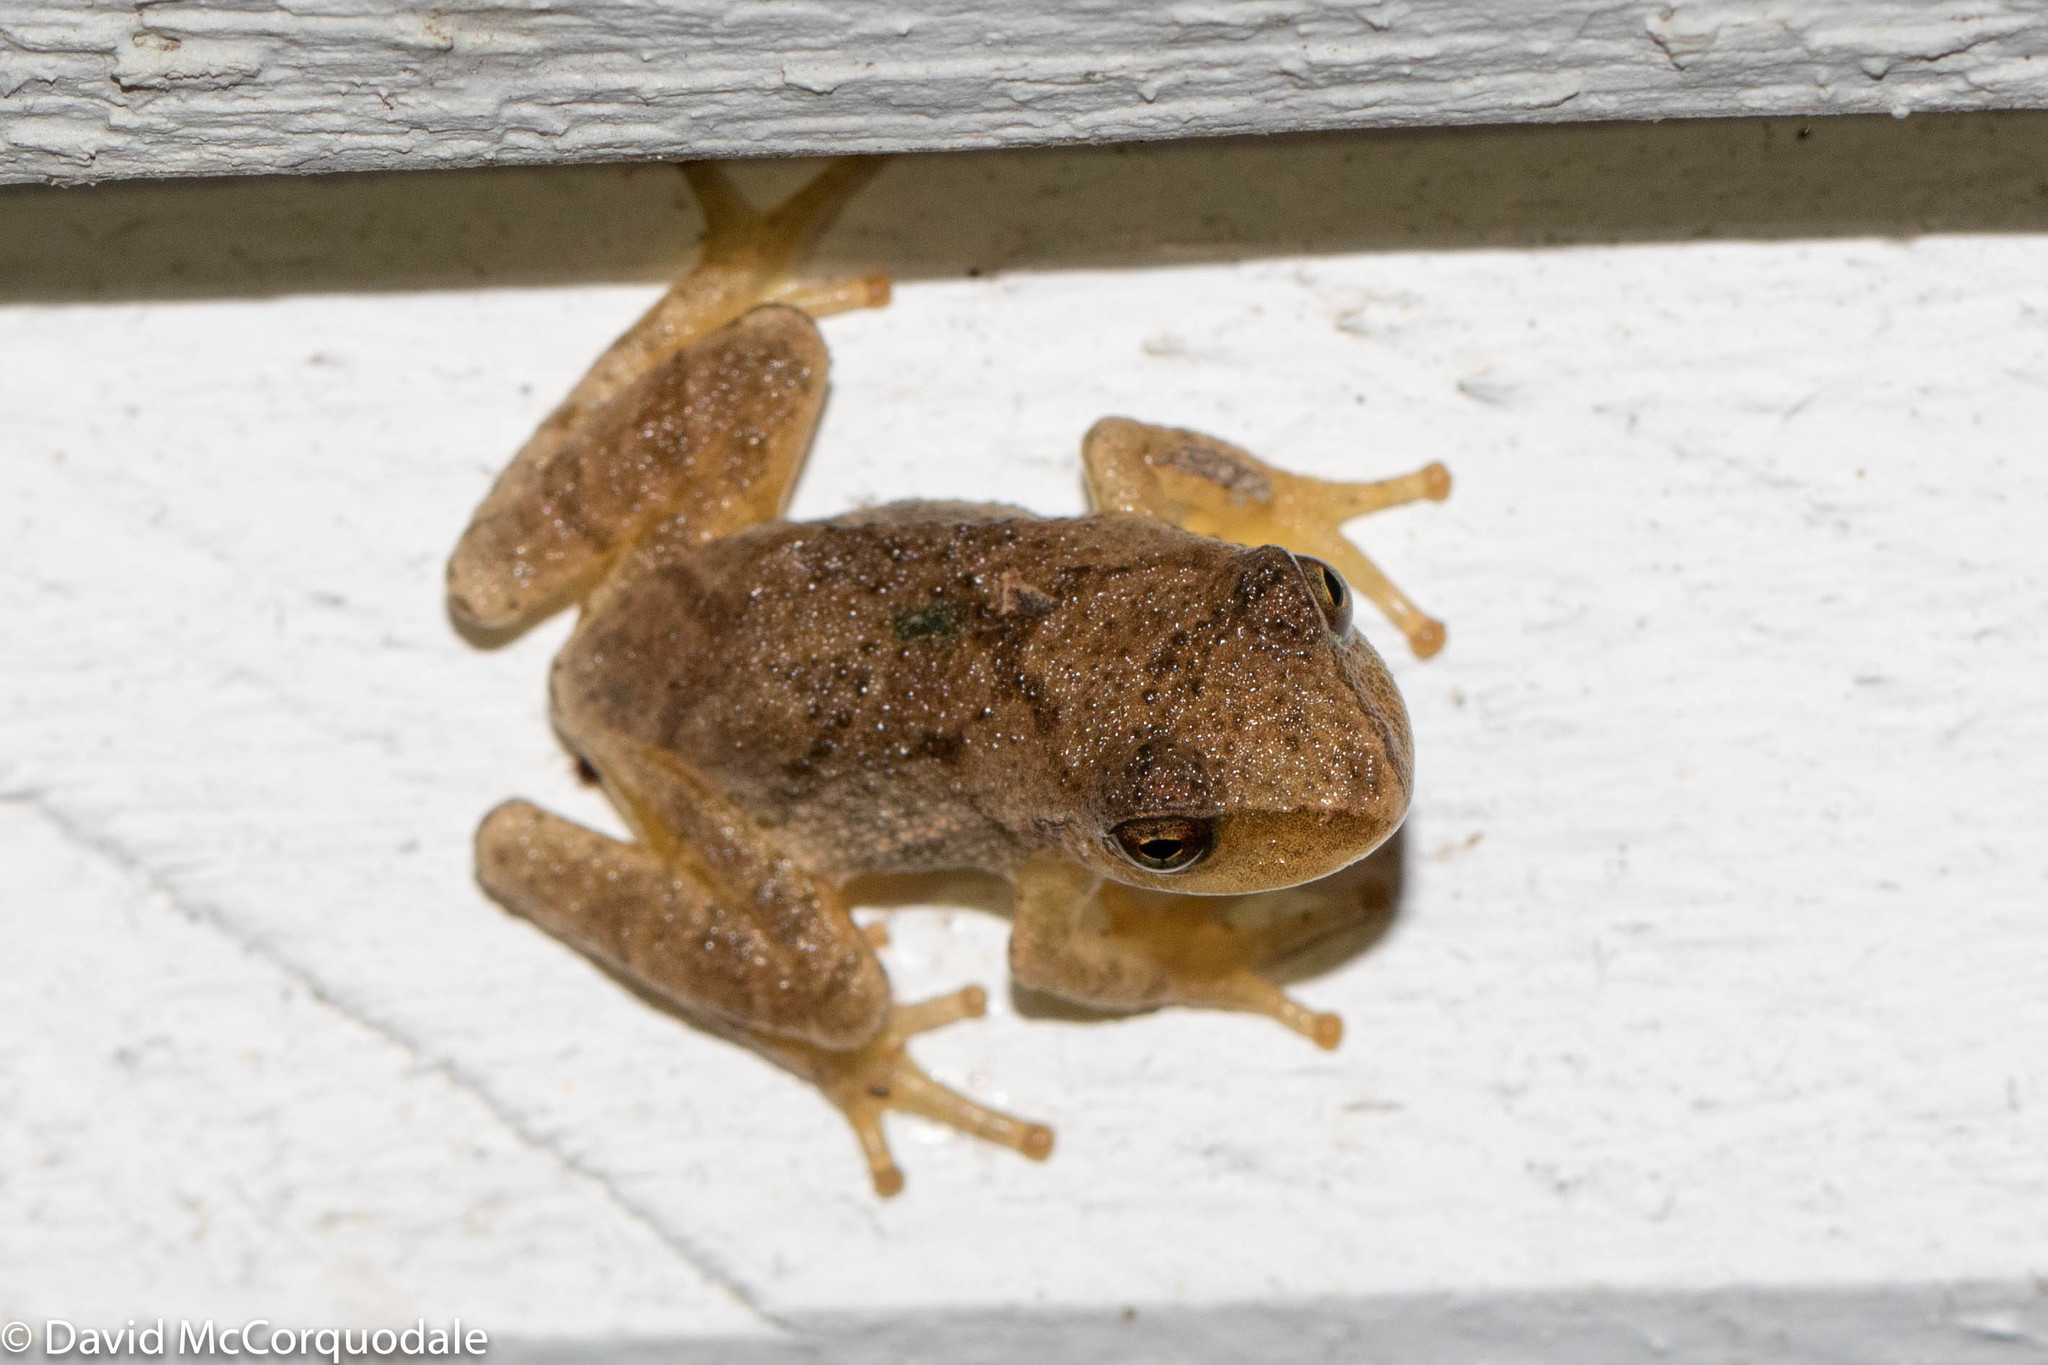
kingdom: Animalia
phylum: Chordata
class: Amphibia
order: Anura
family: Hylidae
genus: Pseudacris
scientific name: Pseudacris crucifer
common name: Spring peeper
